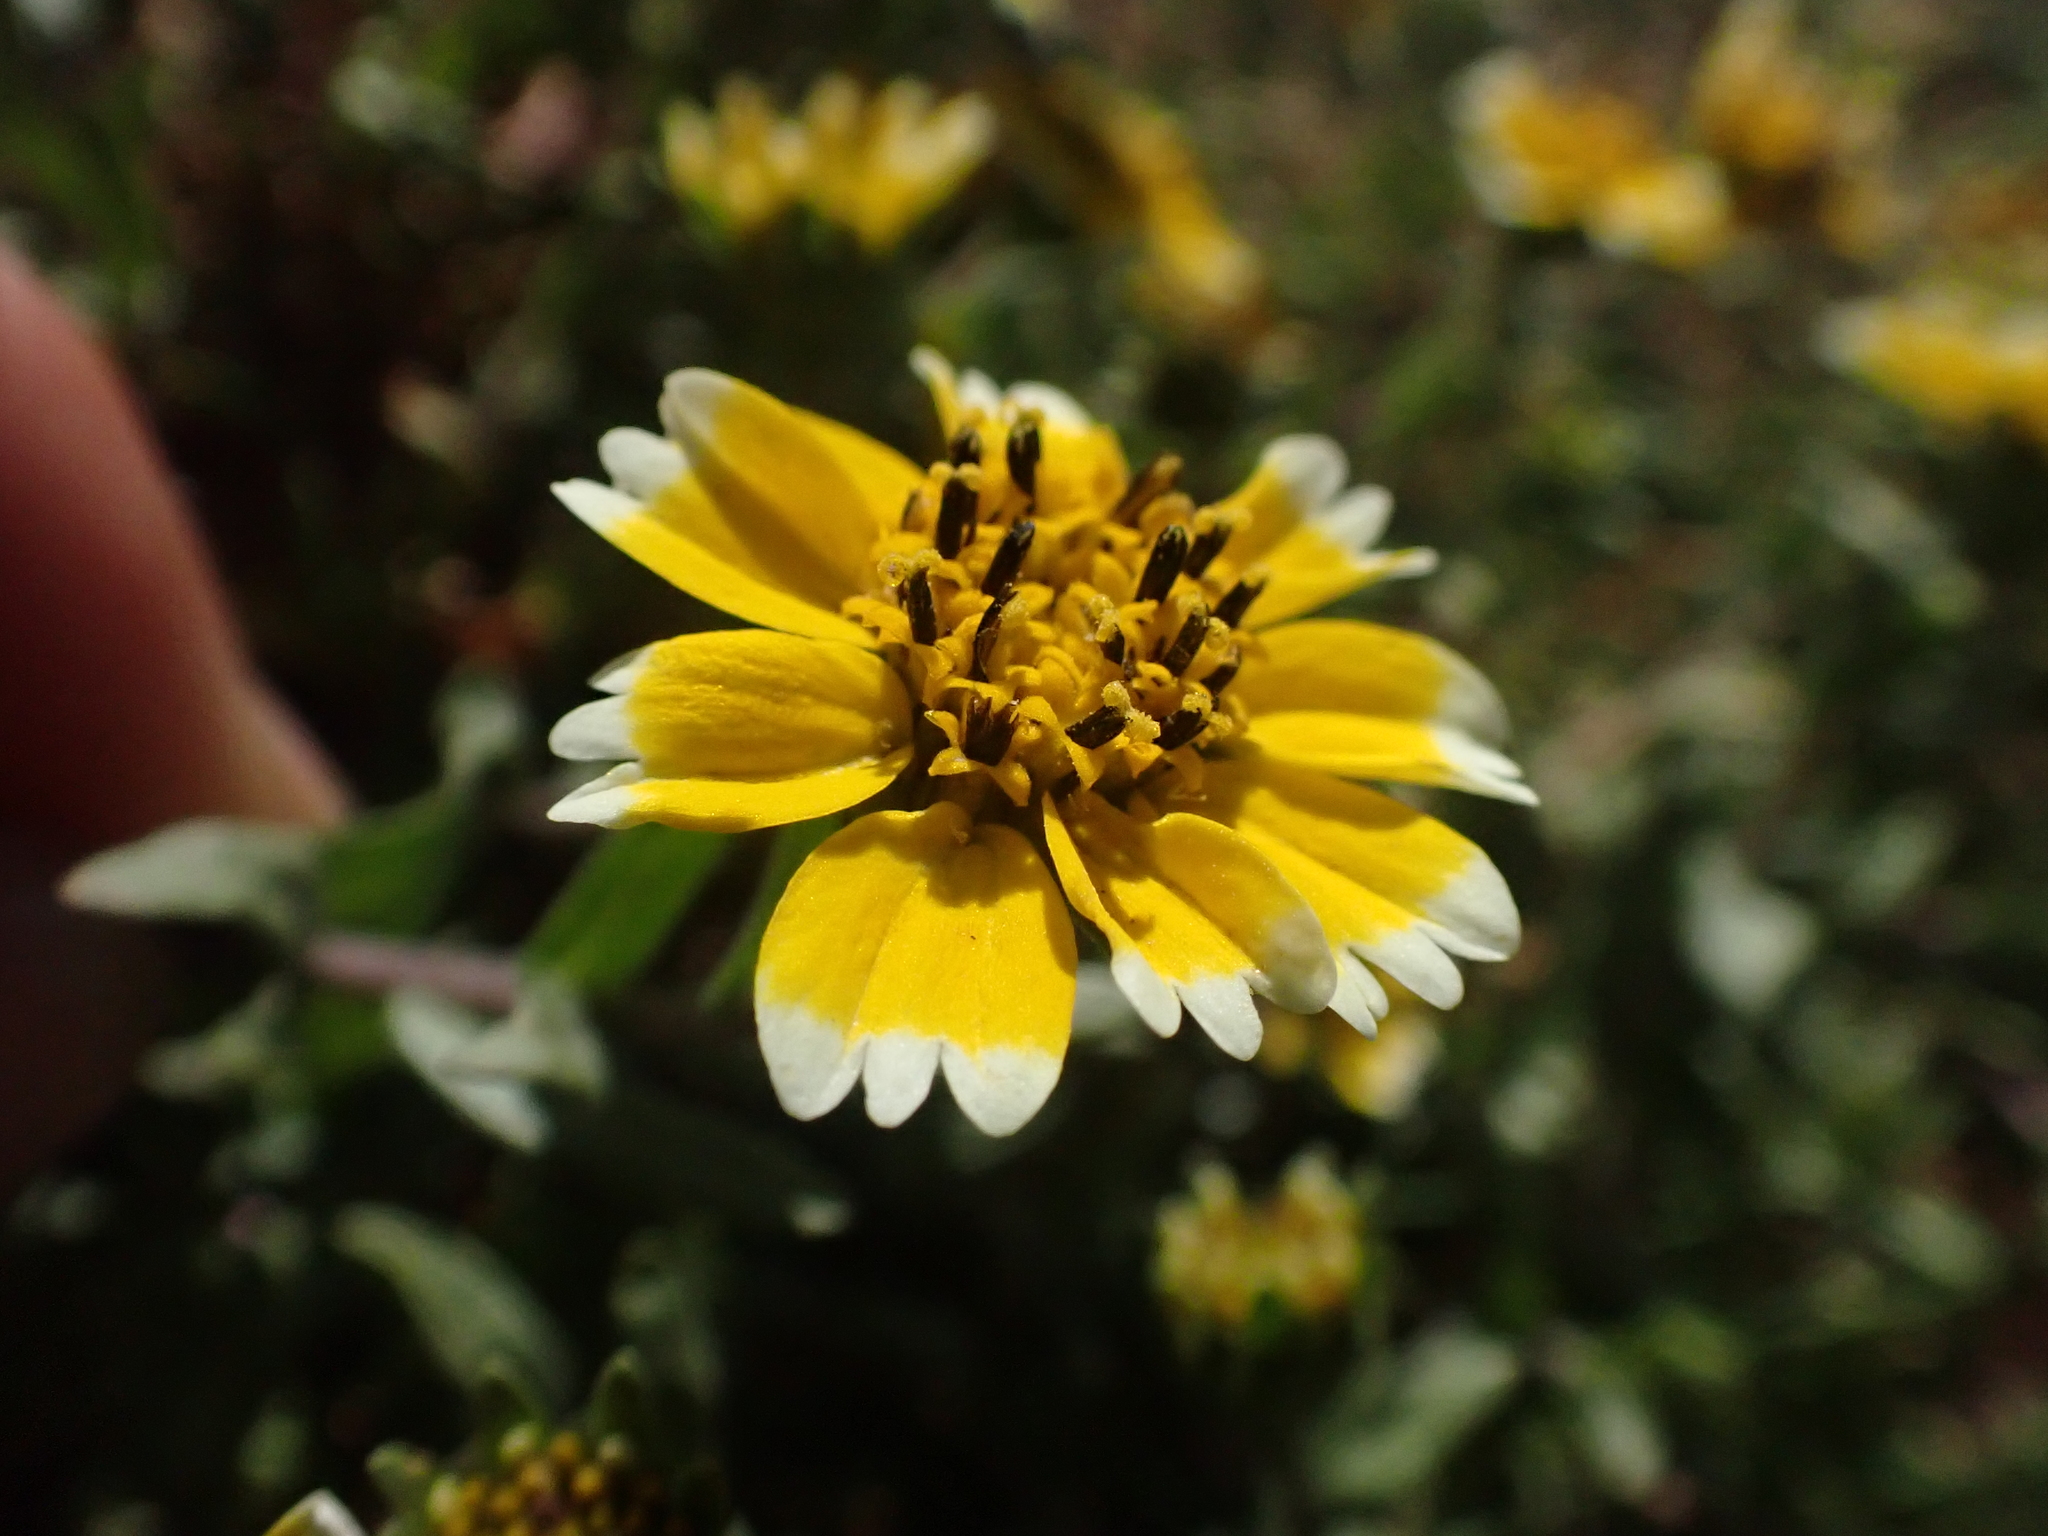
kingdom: Plantae
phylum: Tracheophyta
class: Magnoliopsida
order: Asterales
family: Asteraceae
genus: Layia
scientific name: Layia chrysanthemoides
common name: Smooth layia
